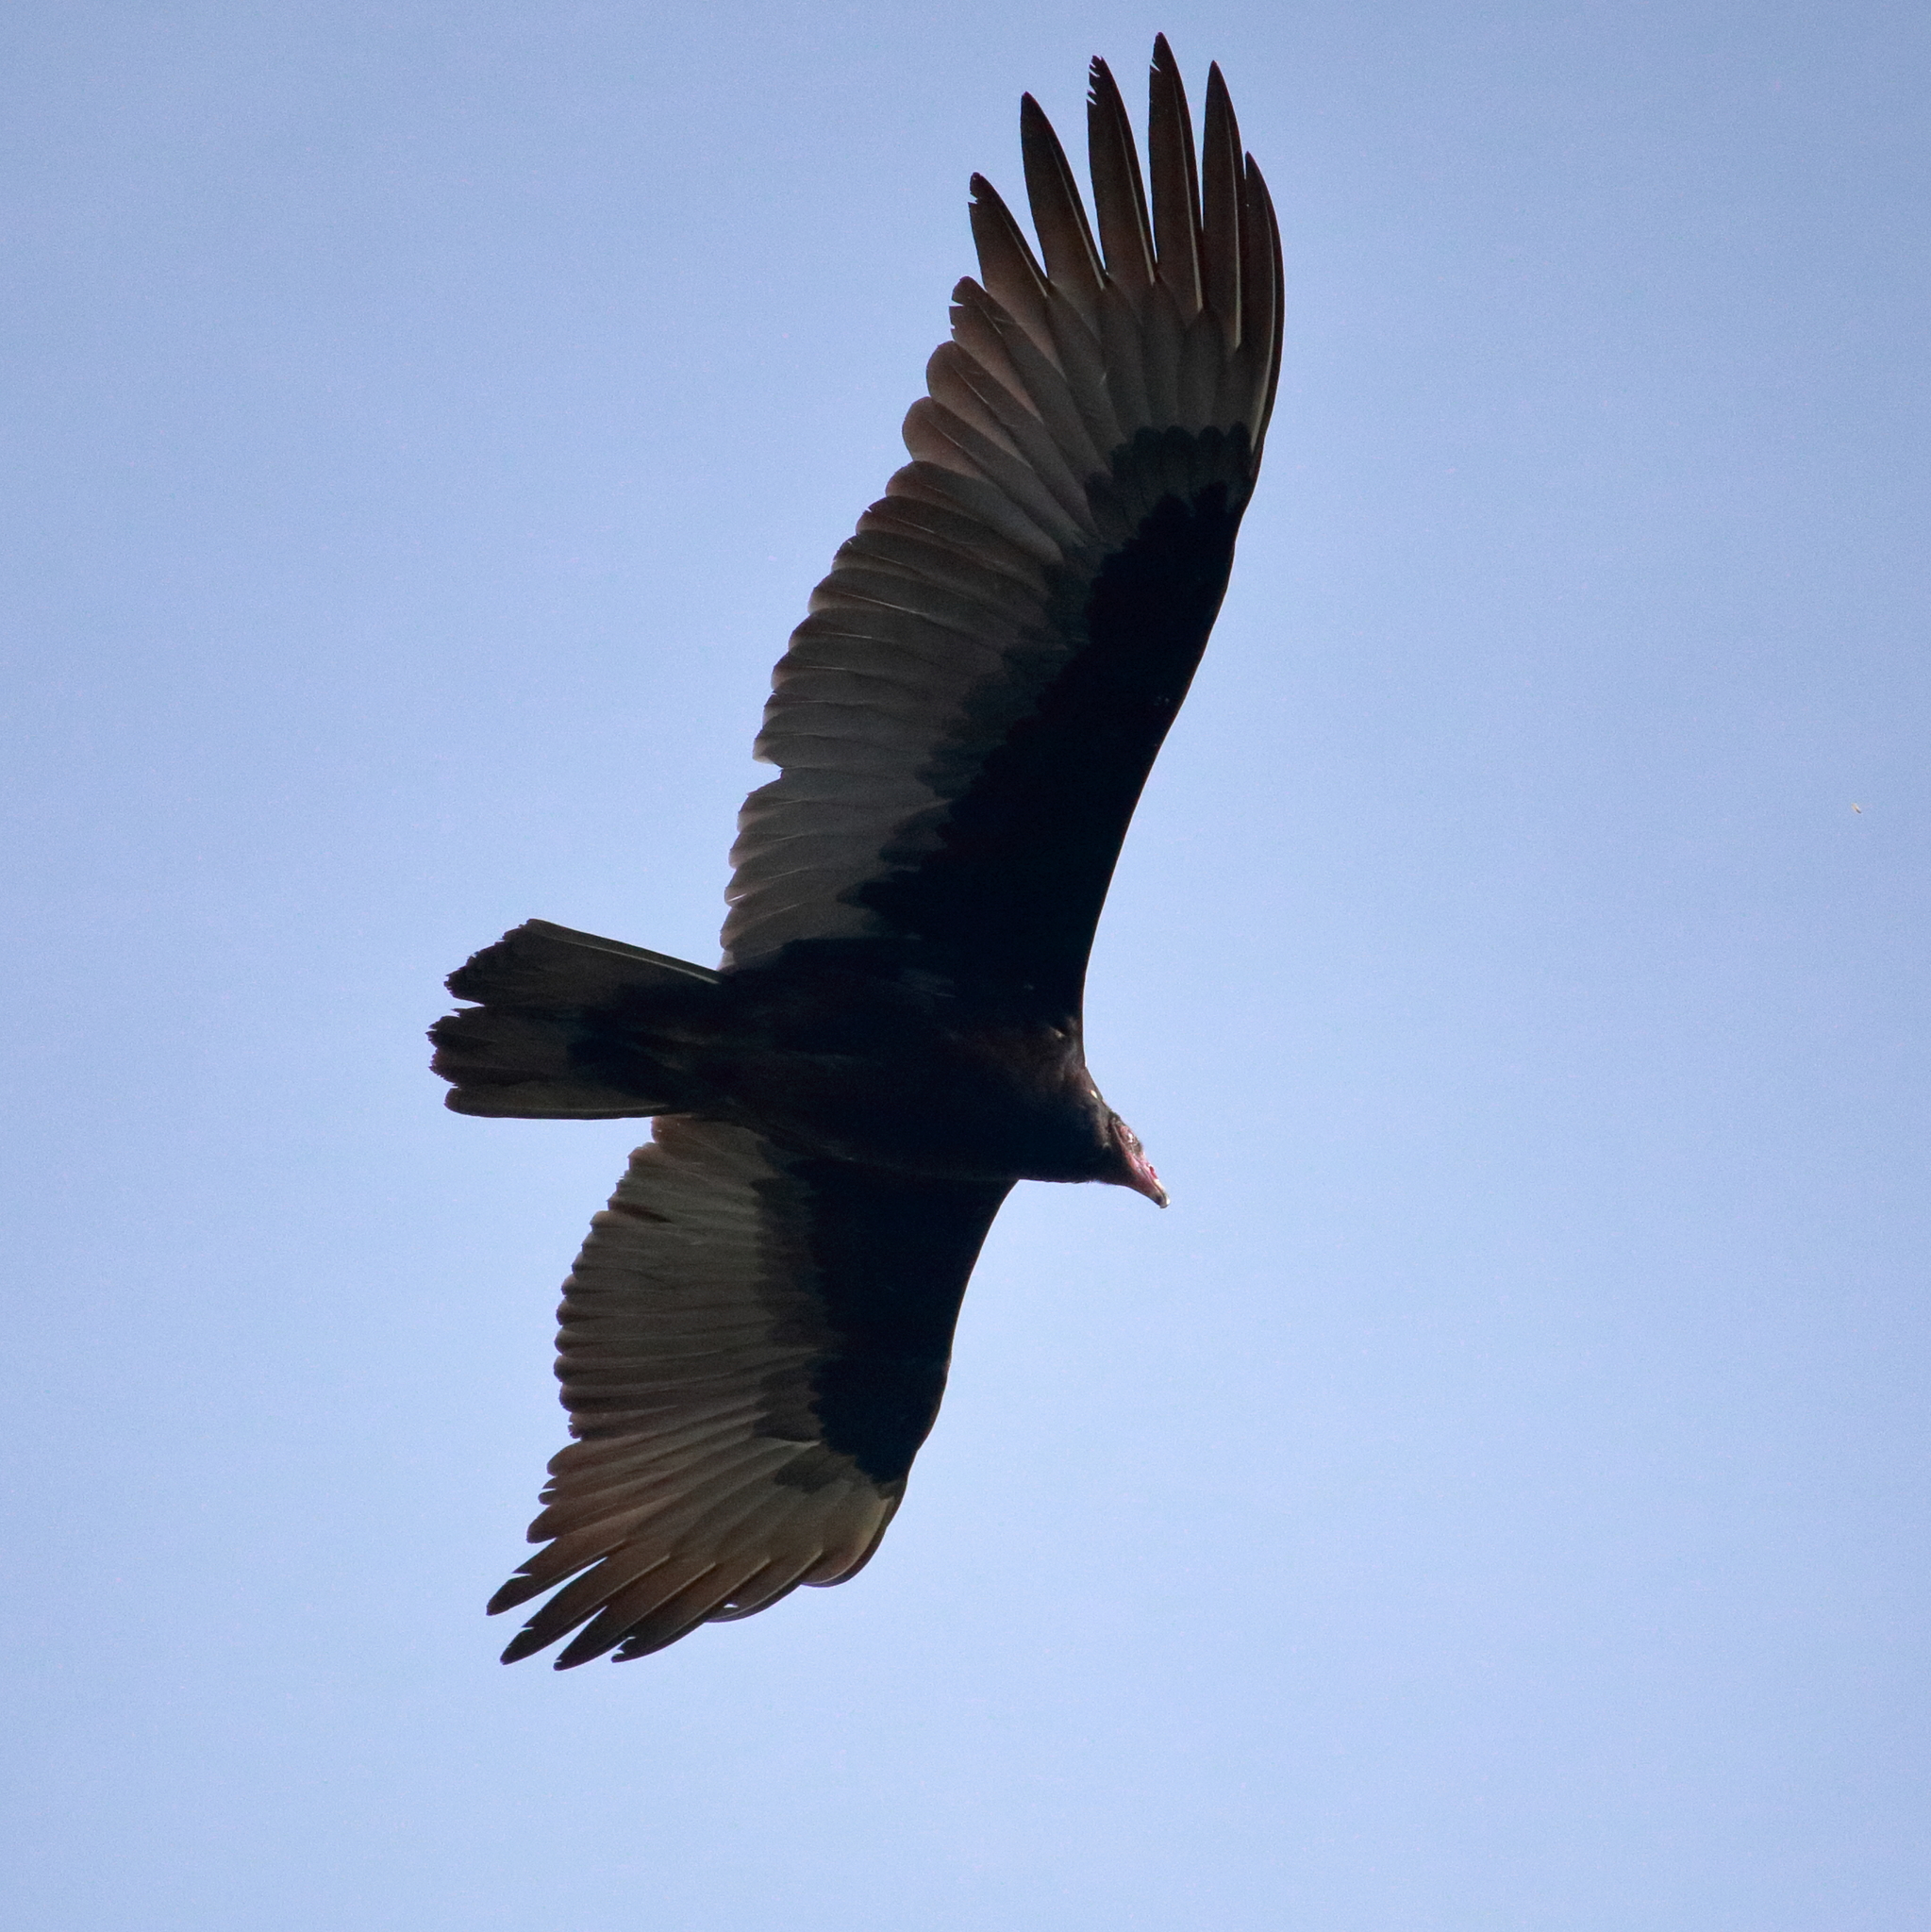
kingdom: Animalia
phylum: Chordata
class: Aves
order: Accipitriformes
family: Cathartidae
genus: Cathartes
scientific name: Cathartes aura
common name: Turkey vulture
